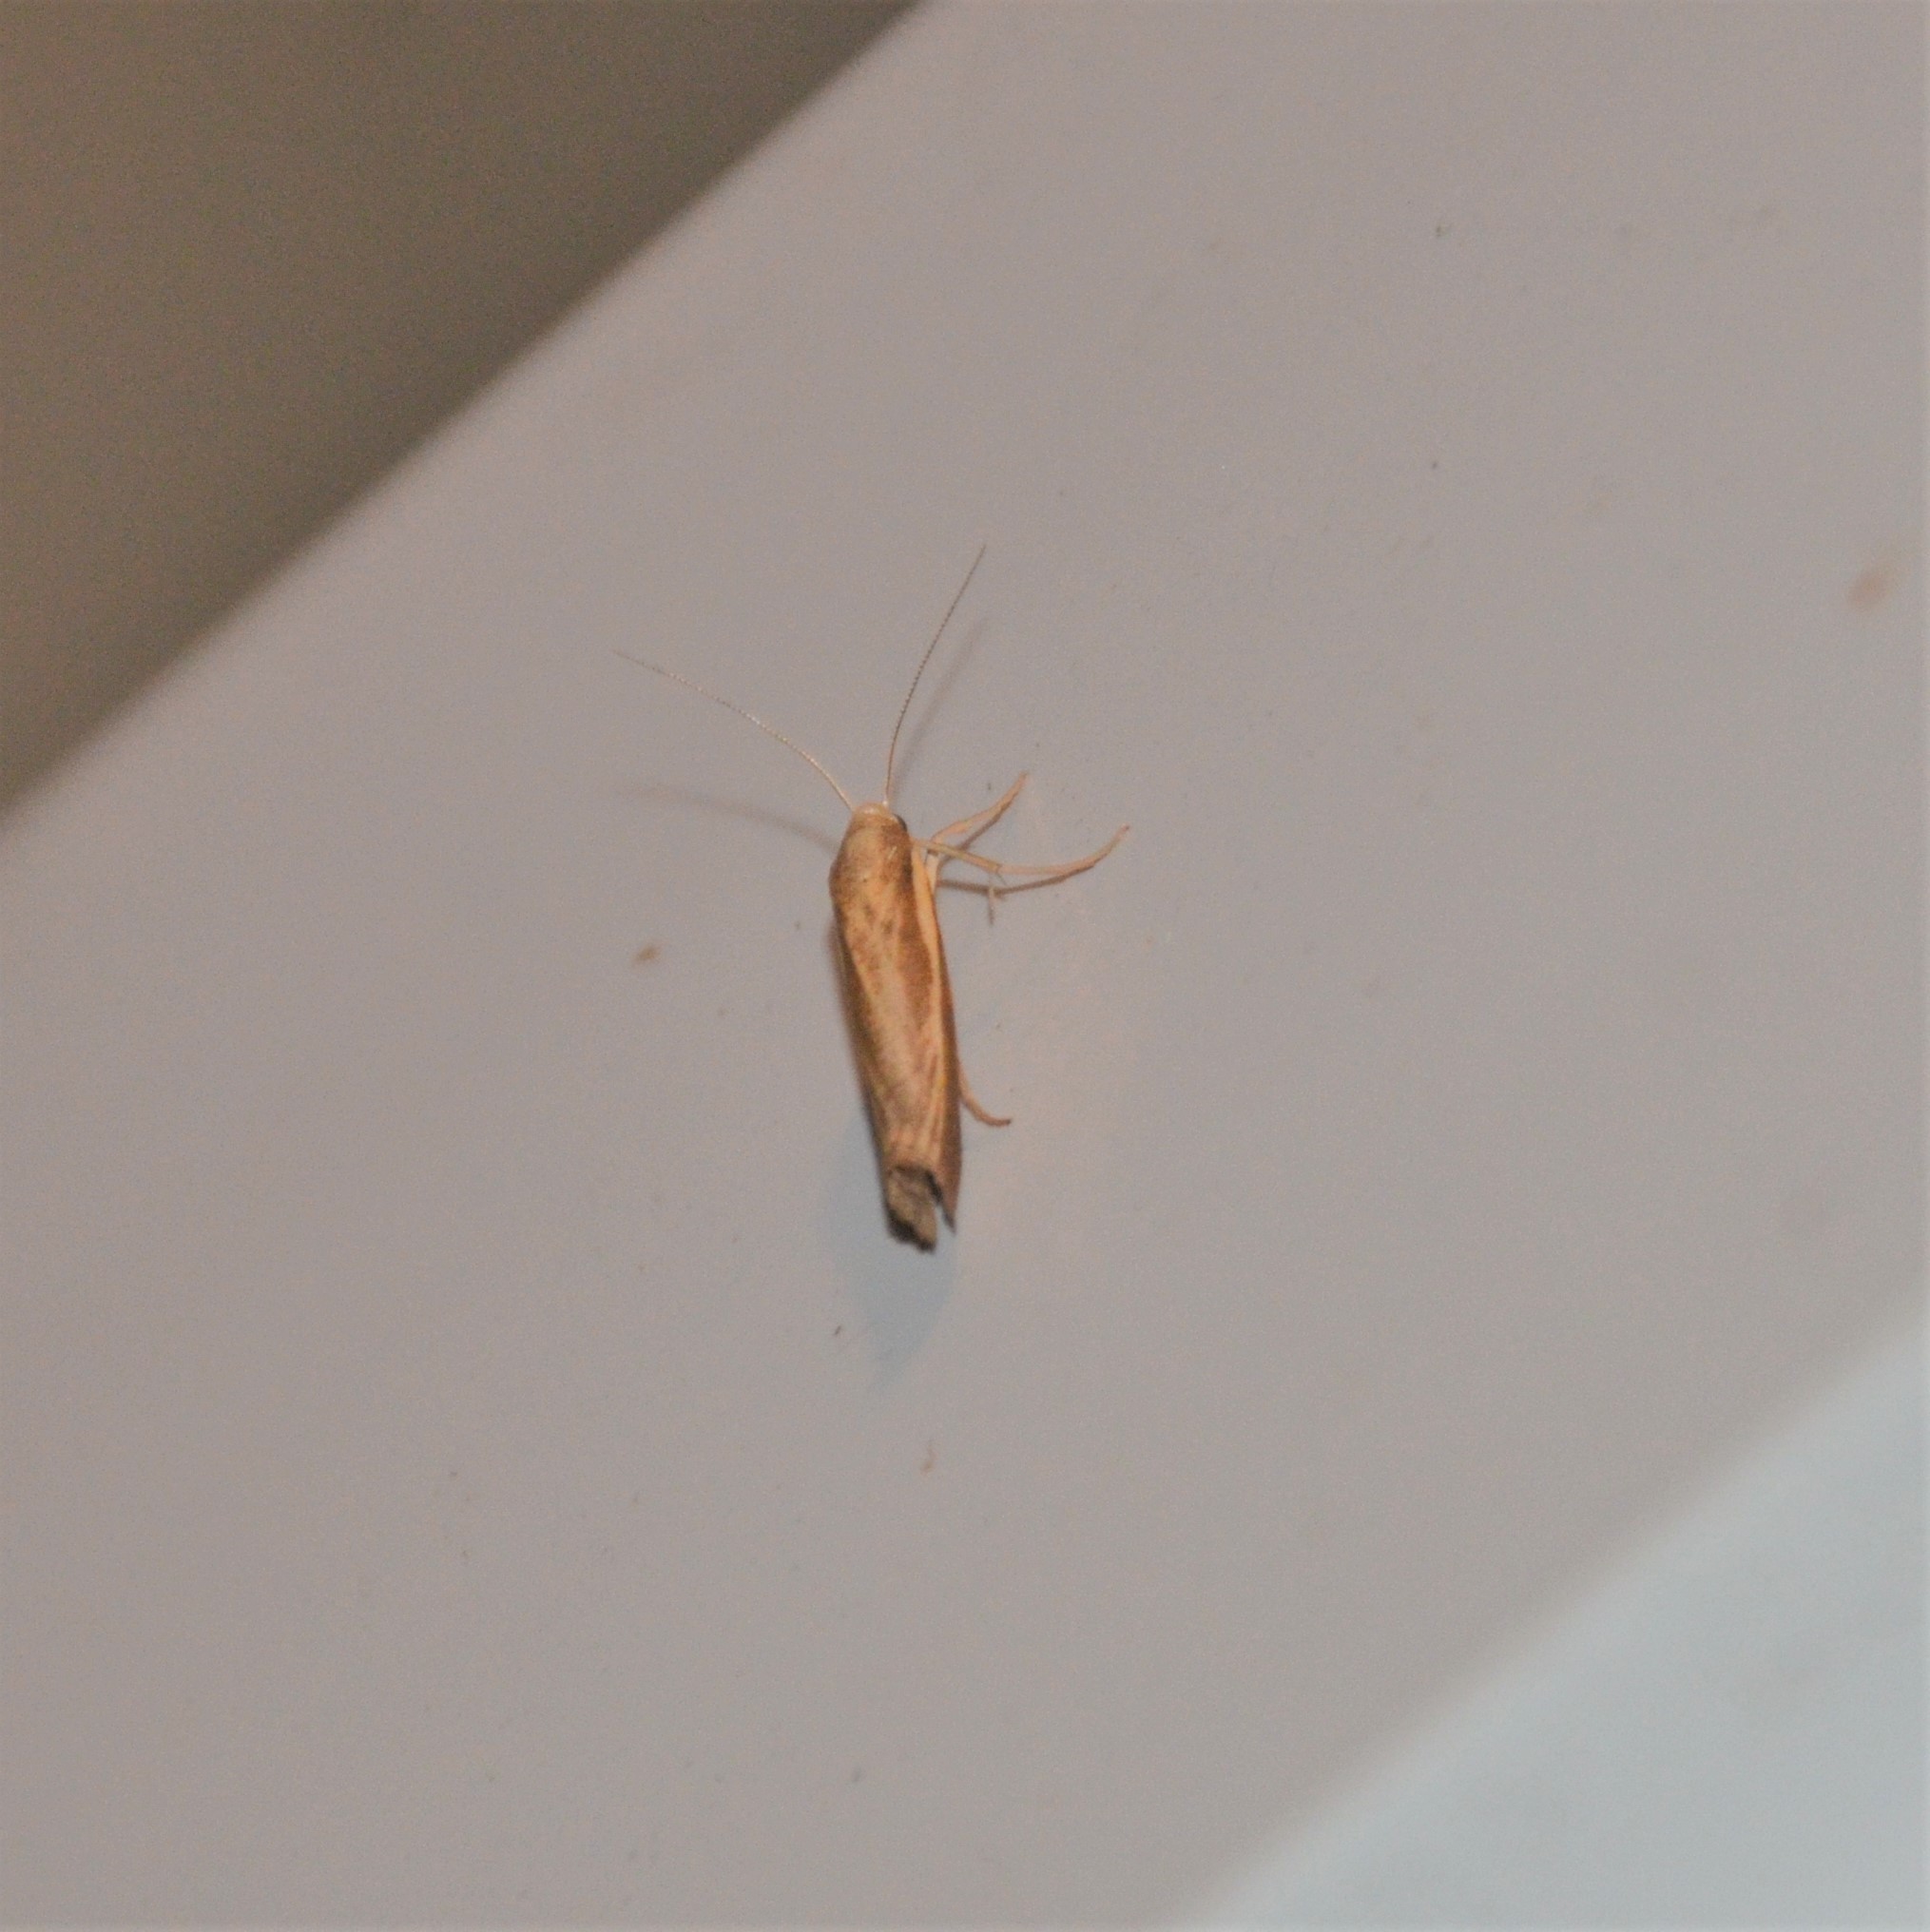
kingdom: Animalia
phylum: Arthropoda
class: Insecta
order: Lepidoptera
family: Crambidae
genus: Agriphila
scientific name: Agriphila tristellus
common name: Common grass-veneer
